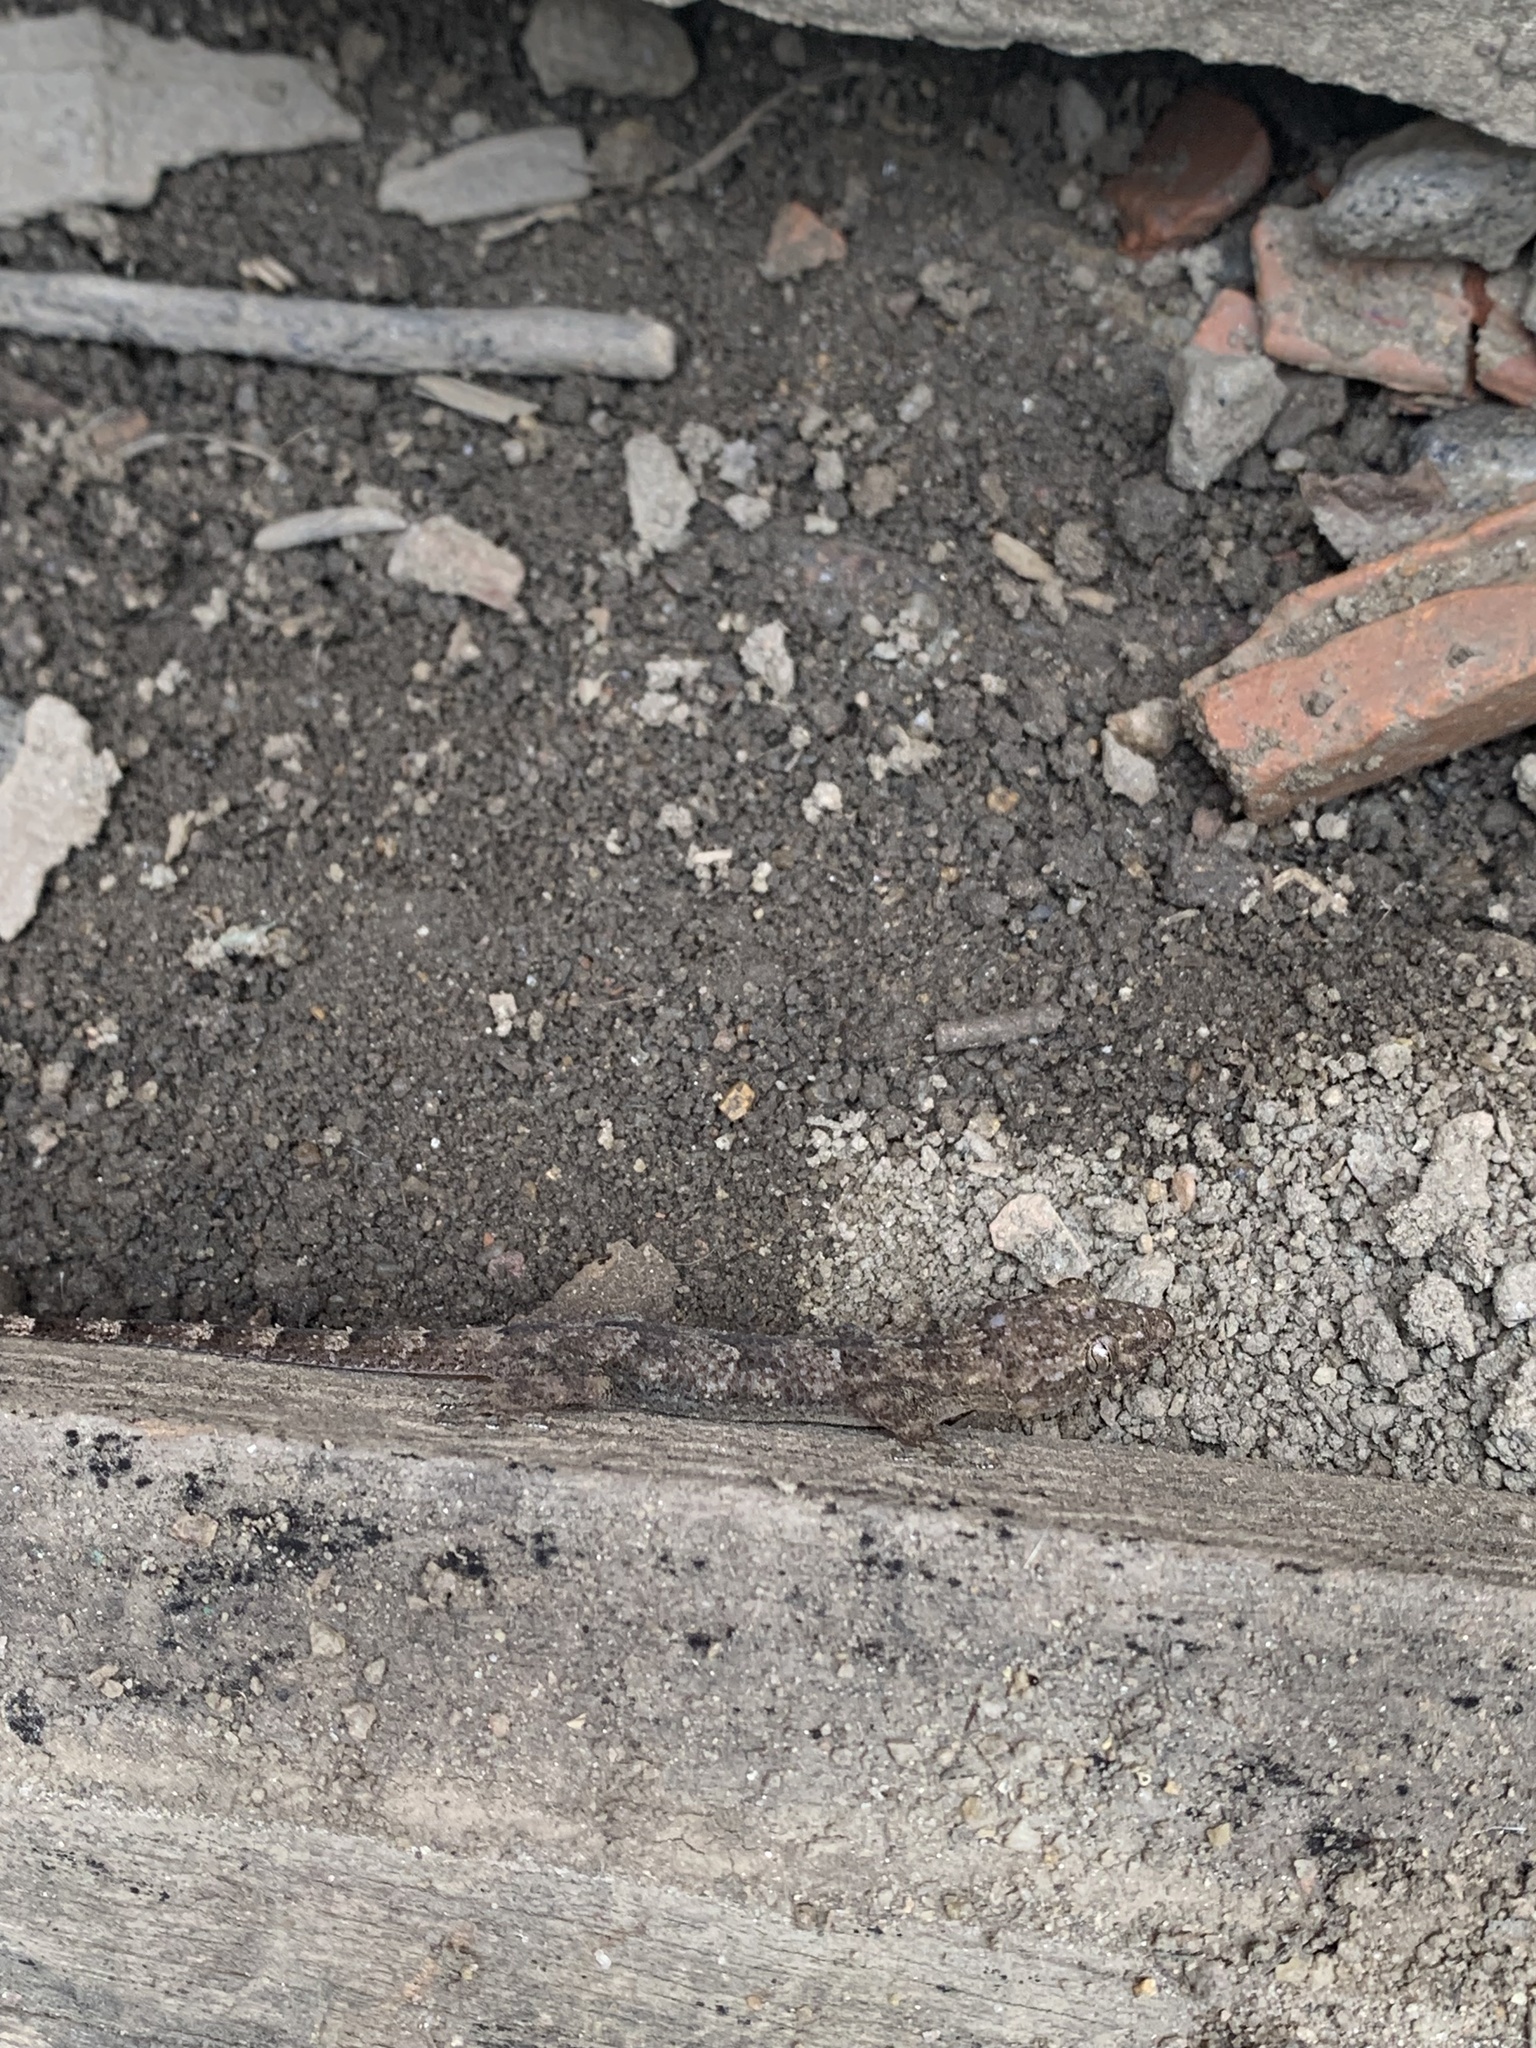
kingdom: Animalia
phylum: Chordata
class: Squamata
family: Gekkonidae
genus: Hemidactylus
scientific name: Hemidactylus mabouia
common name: House gecko
